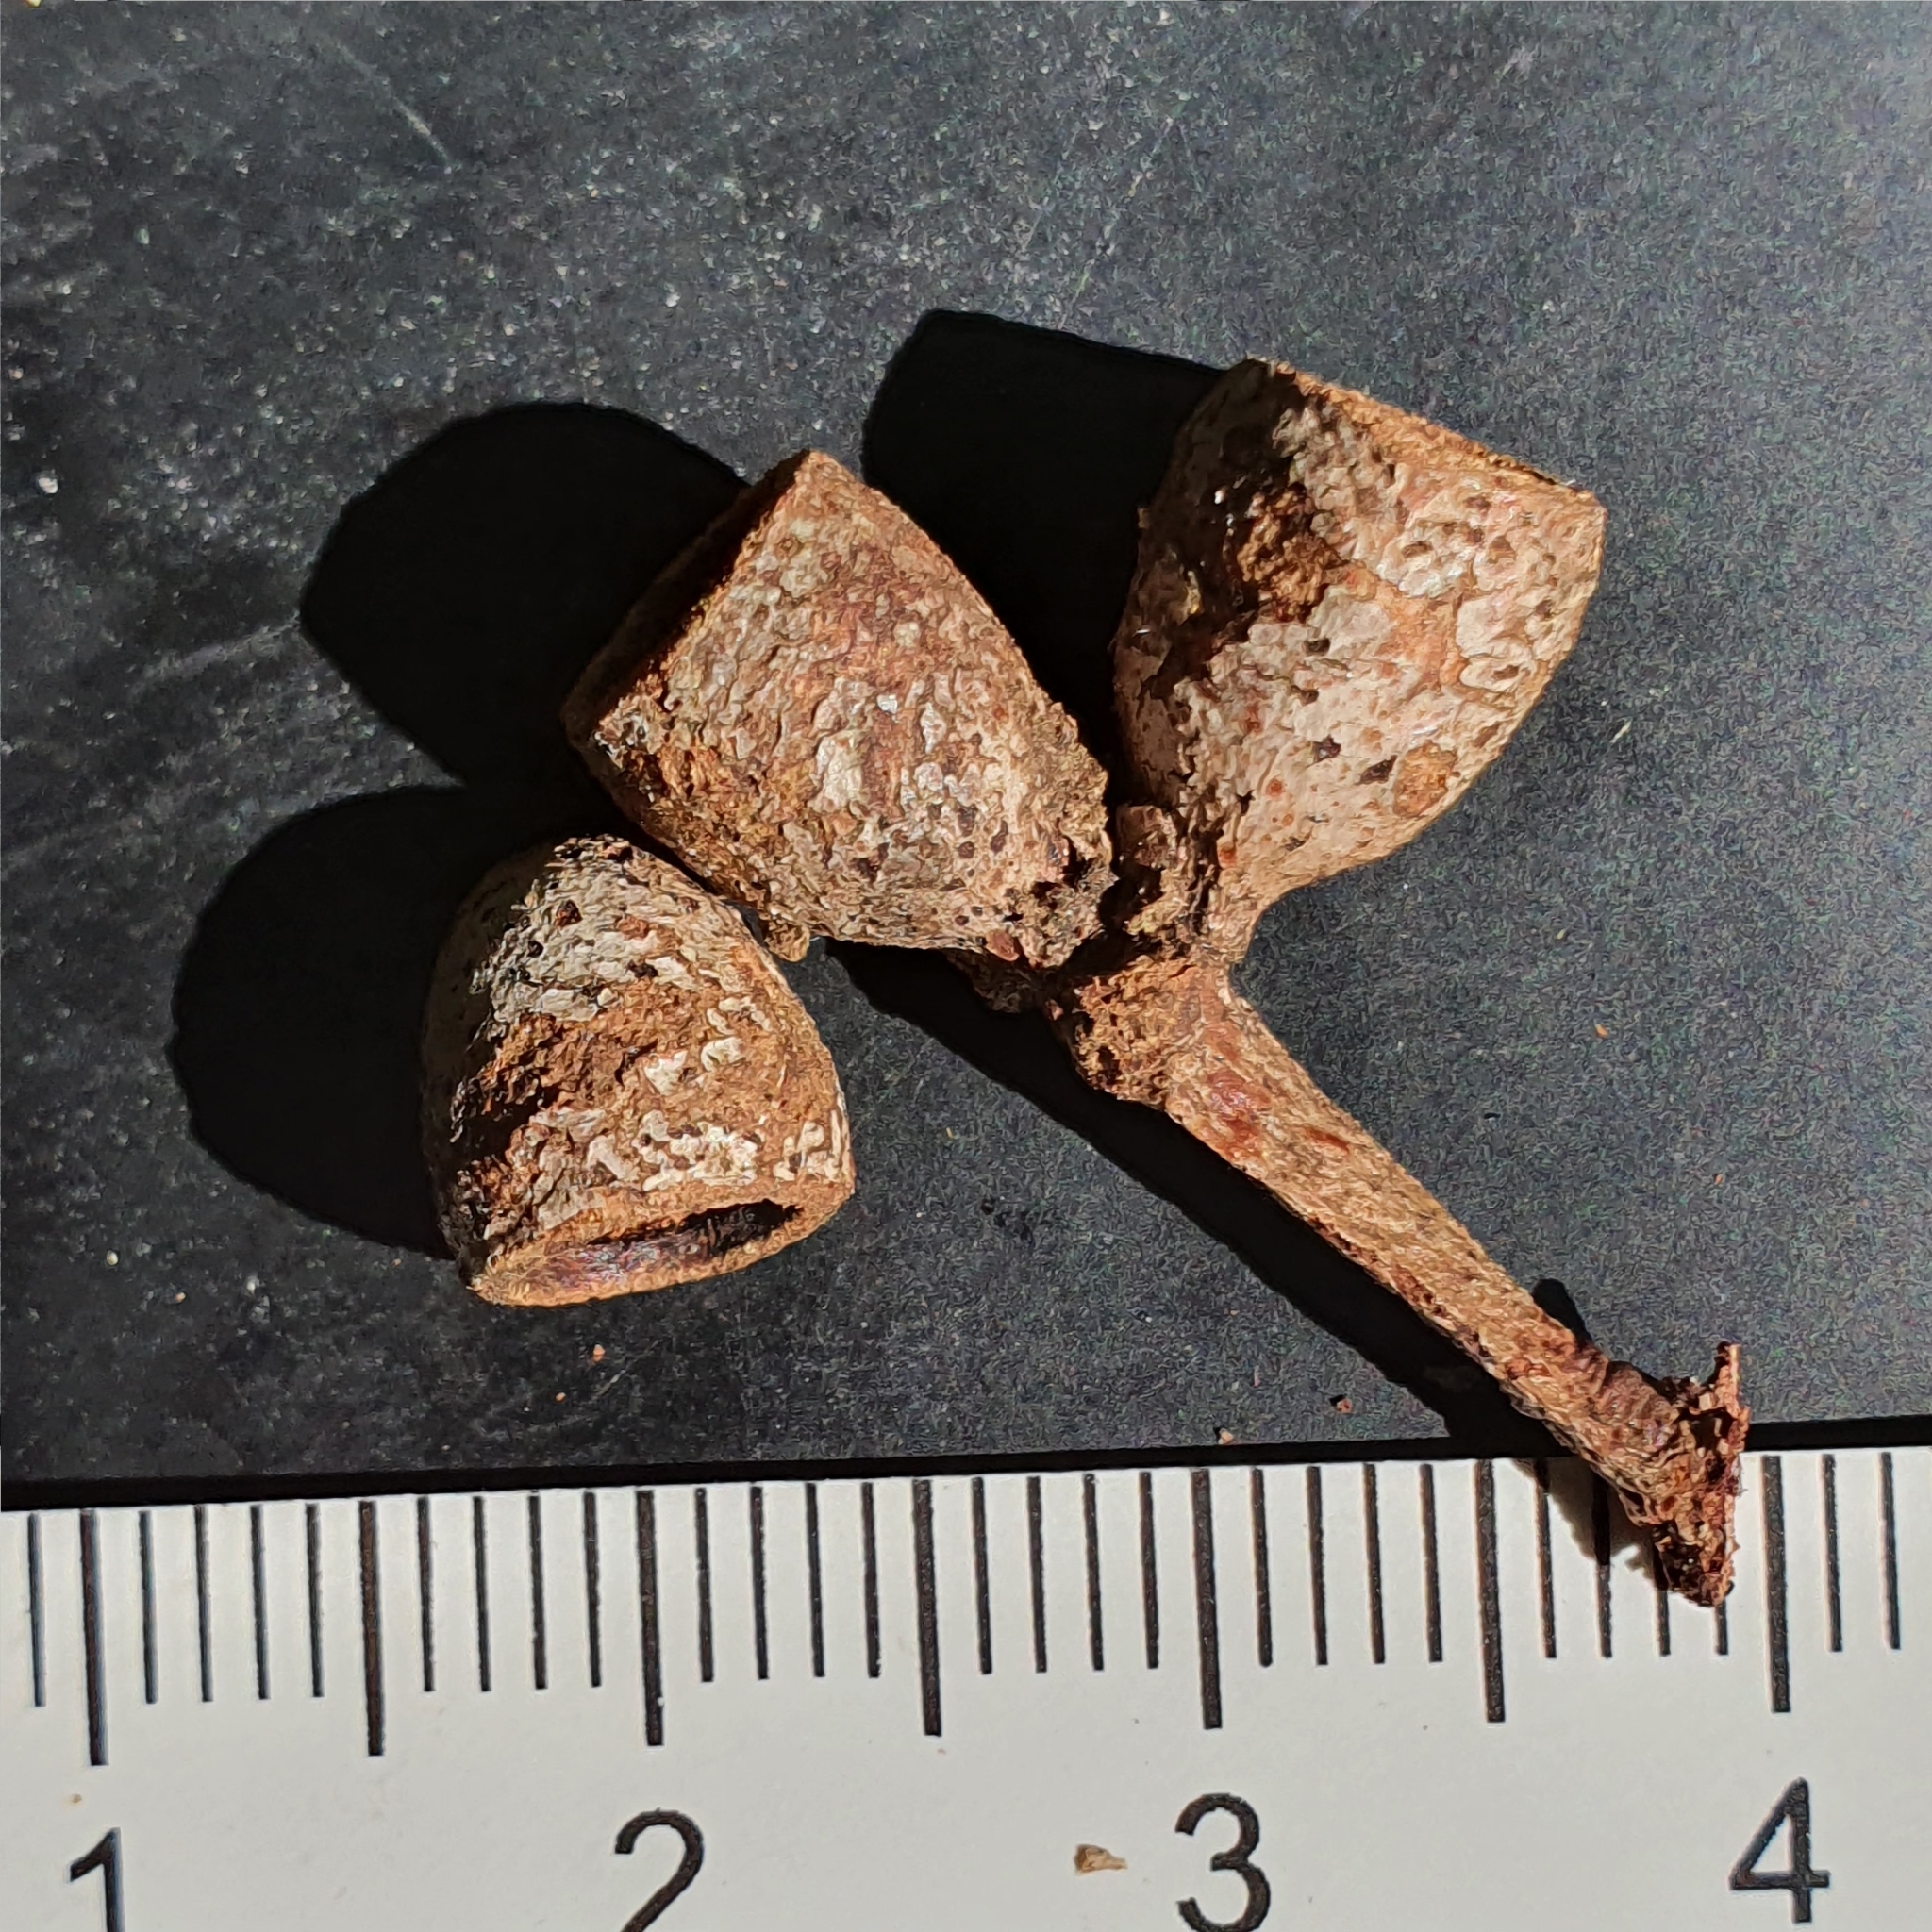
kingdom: Plantae
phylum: Tracheophyta
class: Magnoliopsida
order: Myrtales
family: Myrtaceae
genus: Eucalyptus
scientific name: Eucalyptus botryoides
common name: Bangalay
